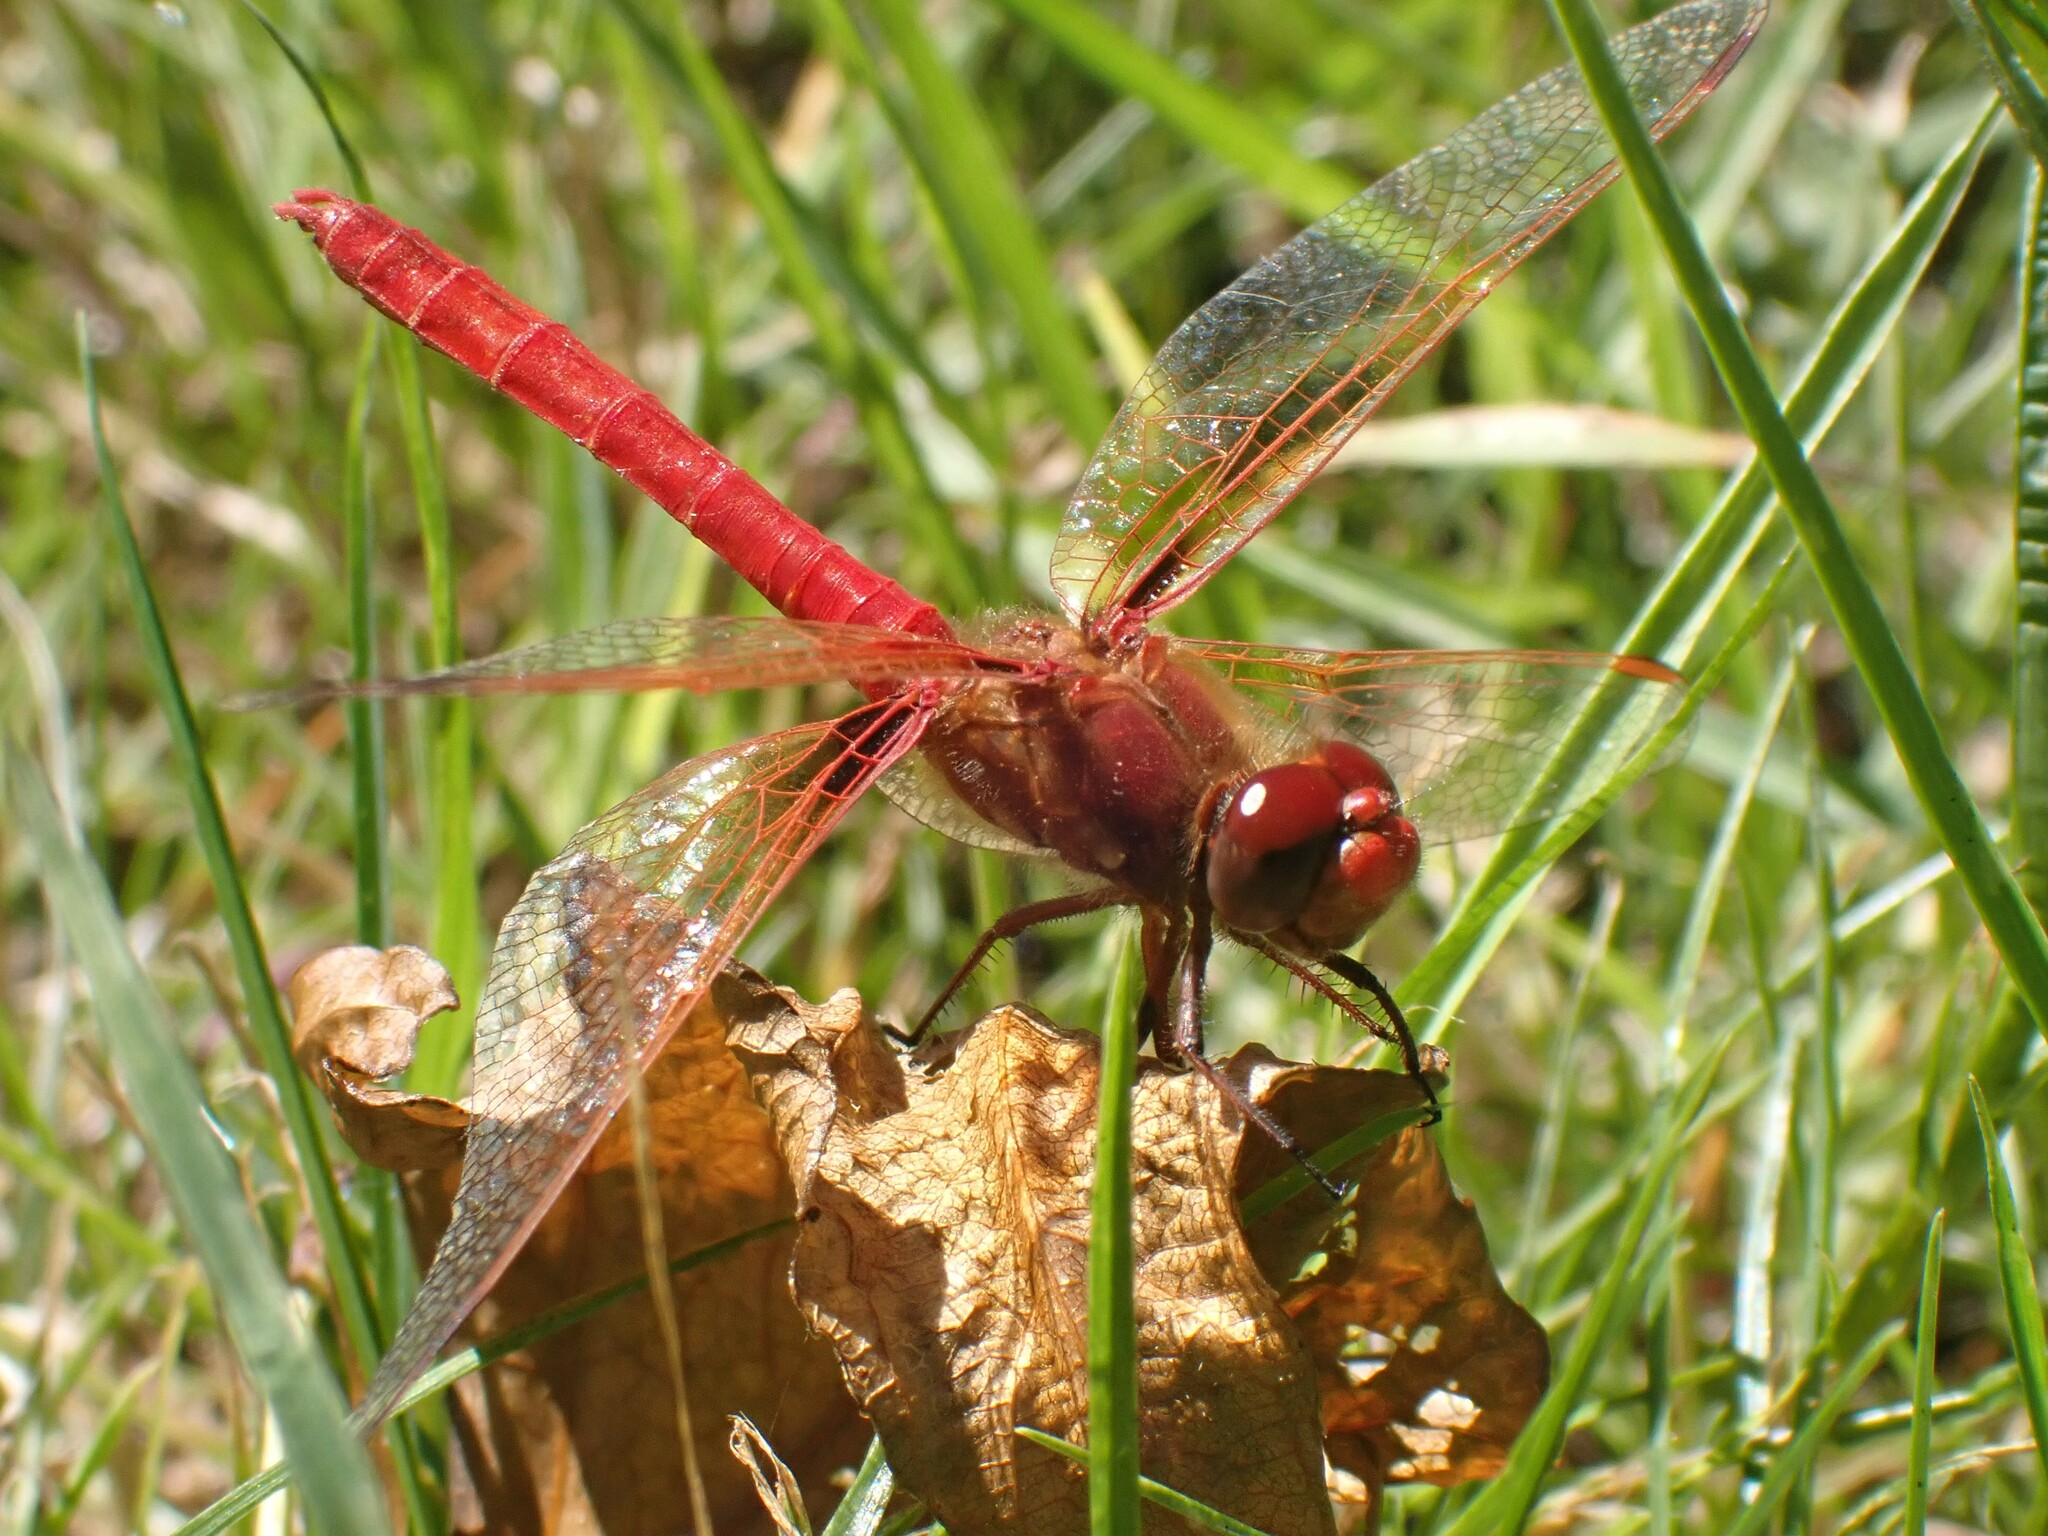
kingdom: Animalia
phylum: Arthropoda
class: Insecta
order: Odonata
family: Libellulidae
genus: Sympetrum
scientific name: Sympetrum illotum
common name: Cardinal meadowhawk
